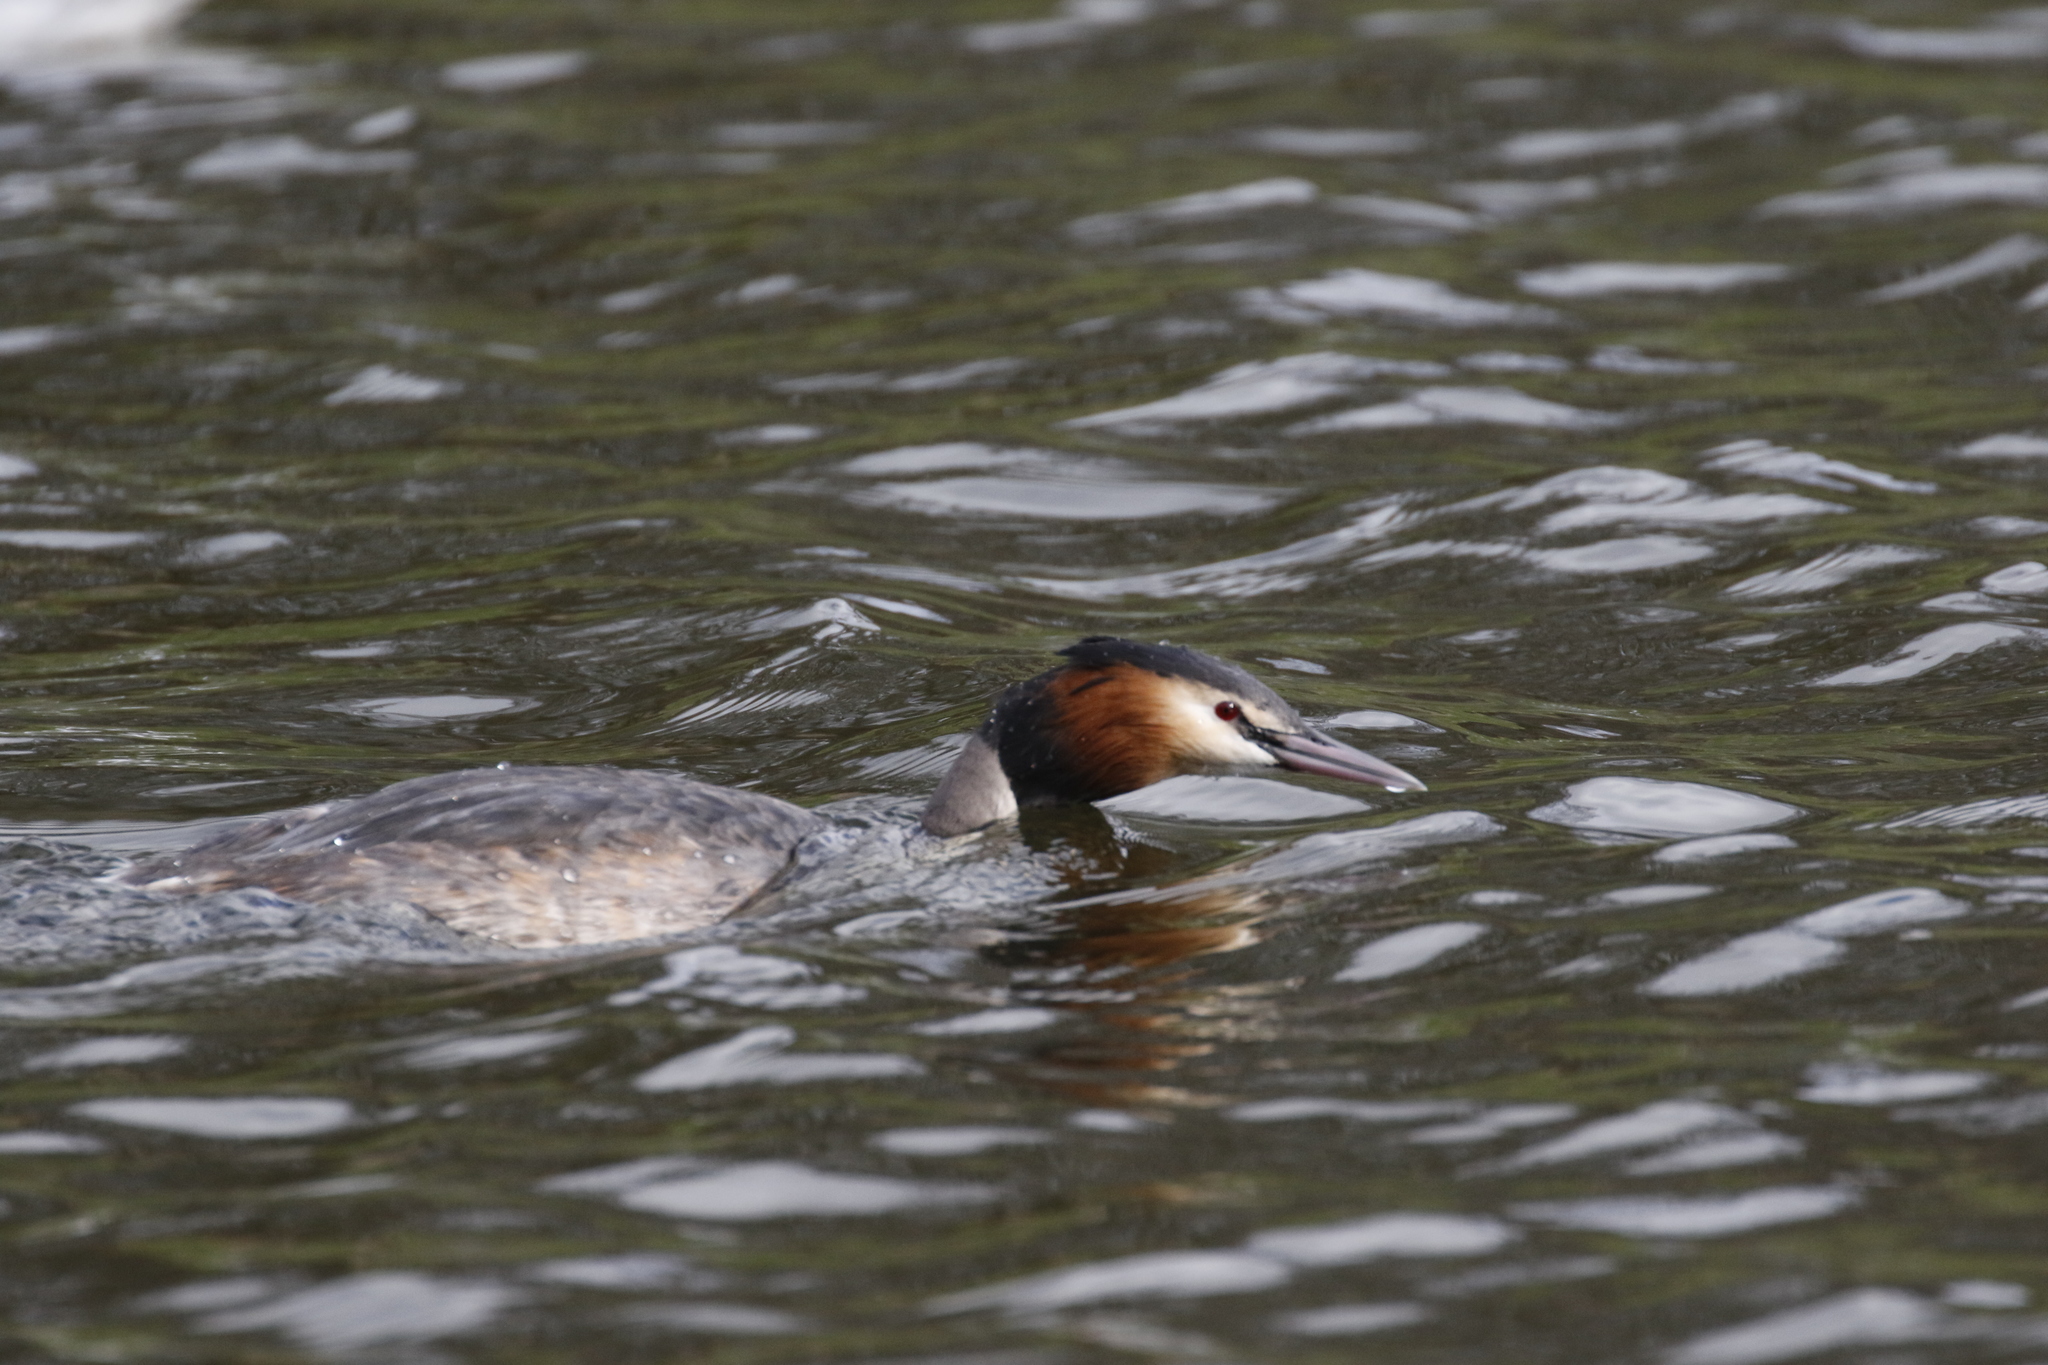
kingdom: Animalia
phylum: Chordata
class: Aves
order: Podicipediformes
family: Podicipedidae
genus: Podiceps
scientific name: Podiceps cristatus
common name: Great crested grebe
